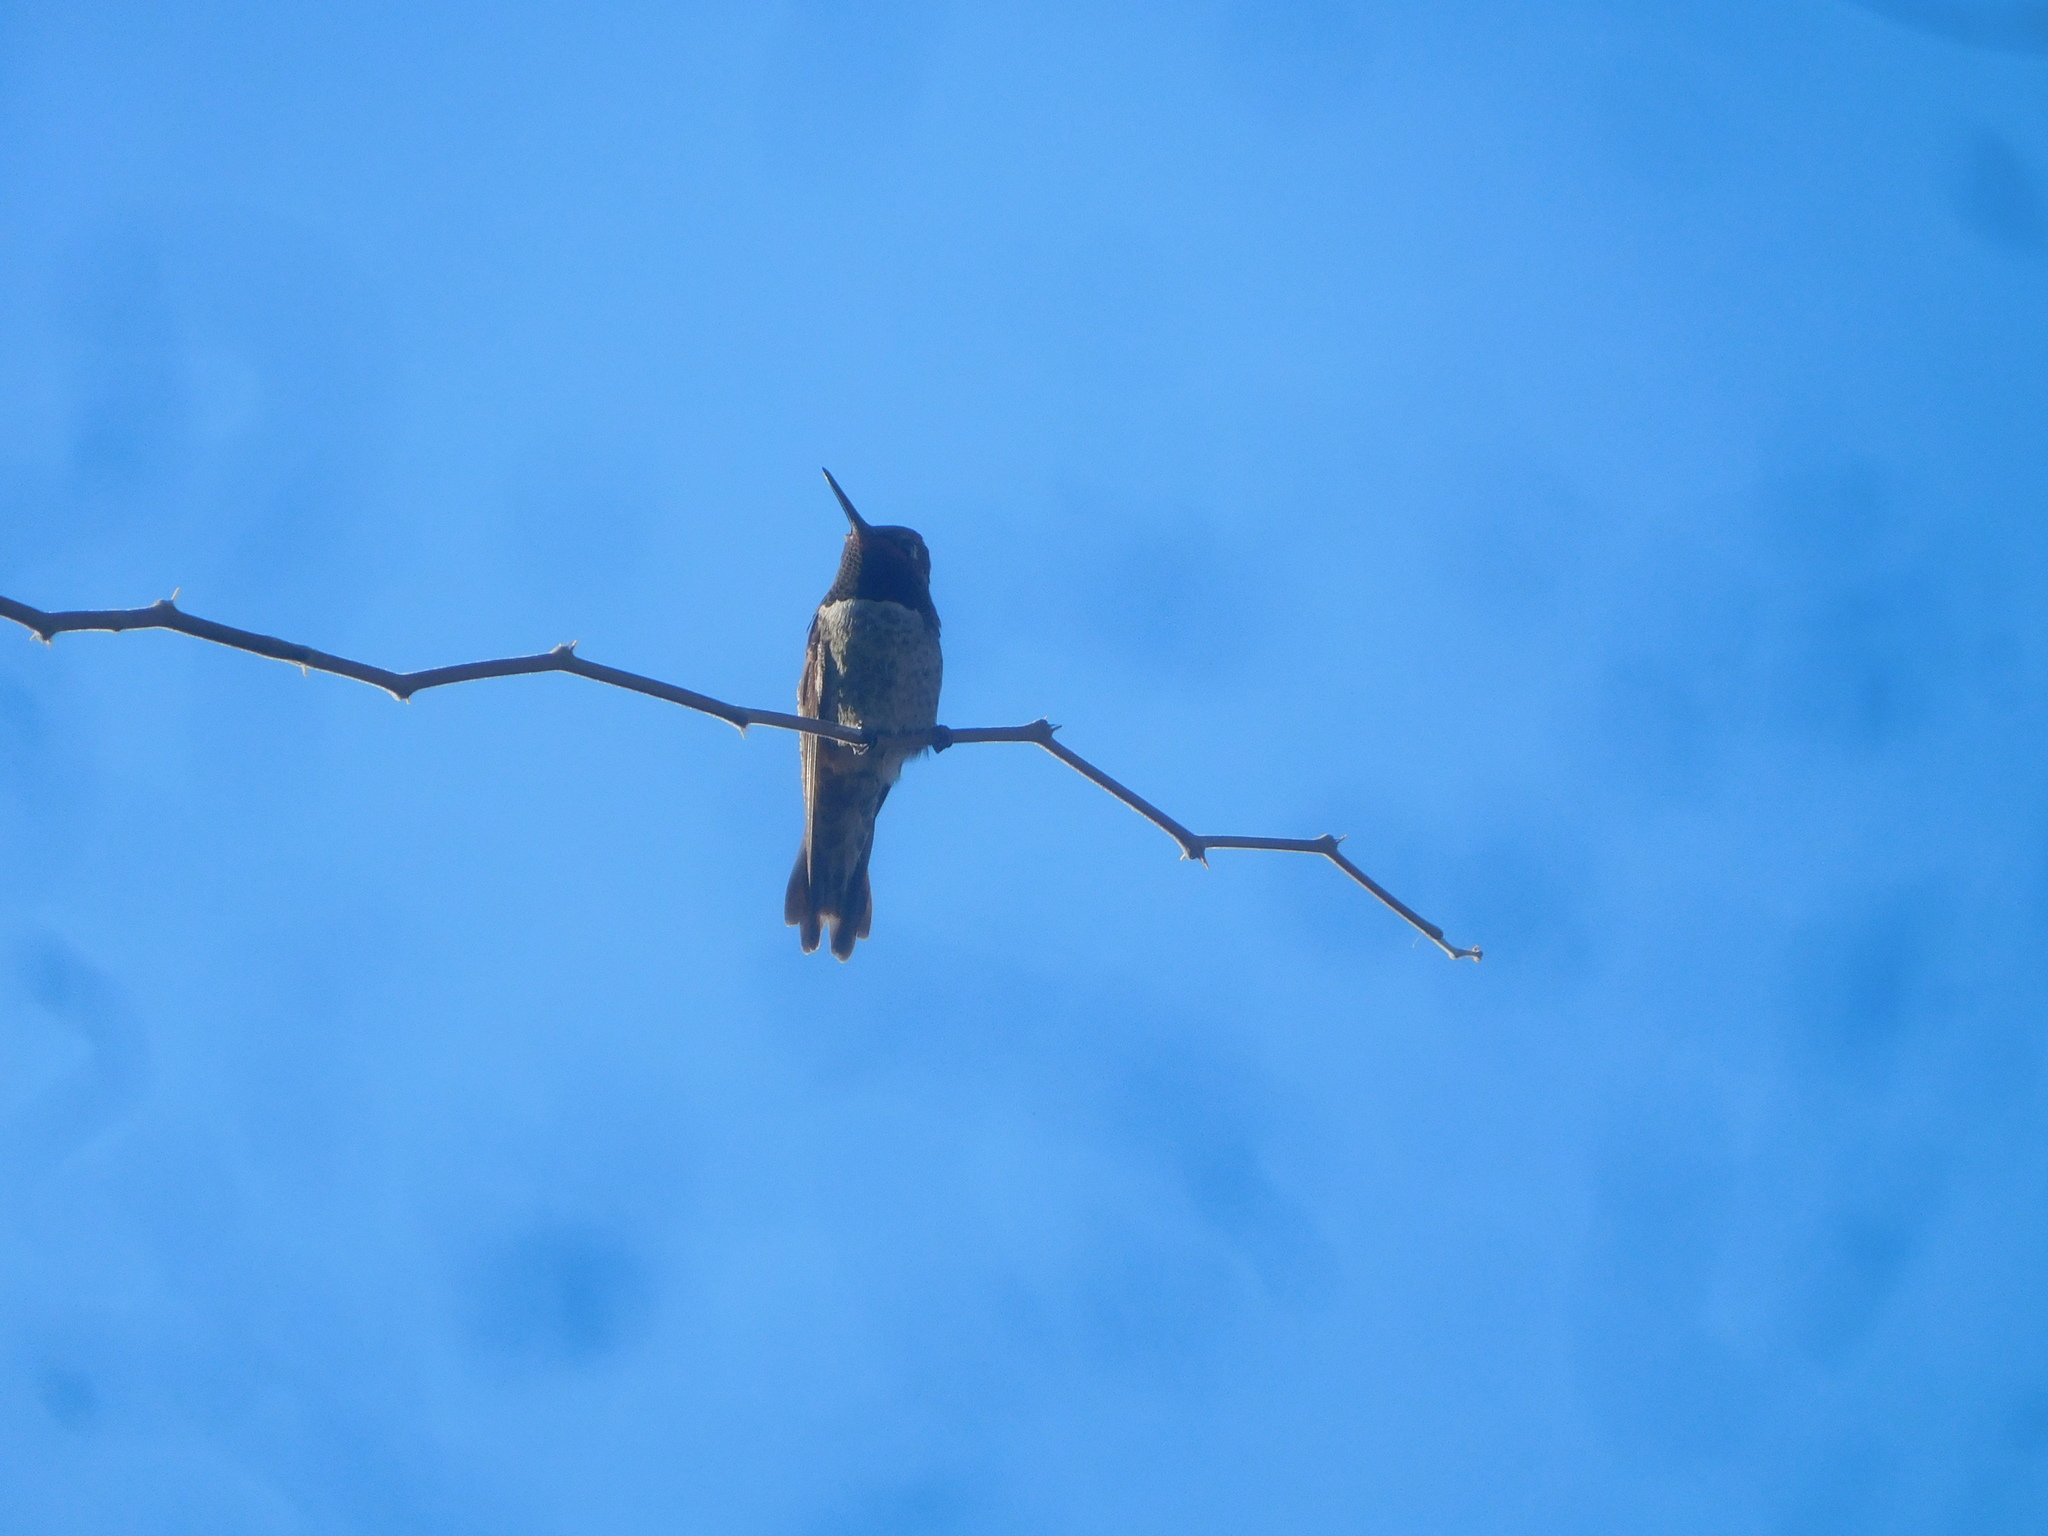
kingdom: Animalia
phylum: Chordata
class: Aves
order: Apodiformes
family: Trochilidae
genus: Calypte
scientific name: Calypte anna
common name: Anna's hummingbird
